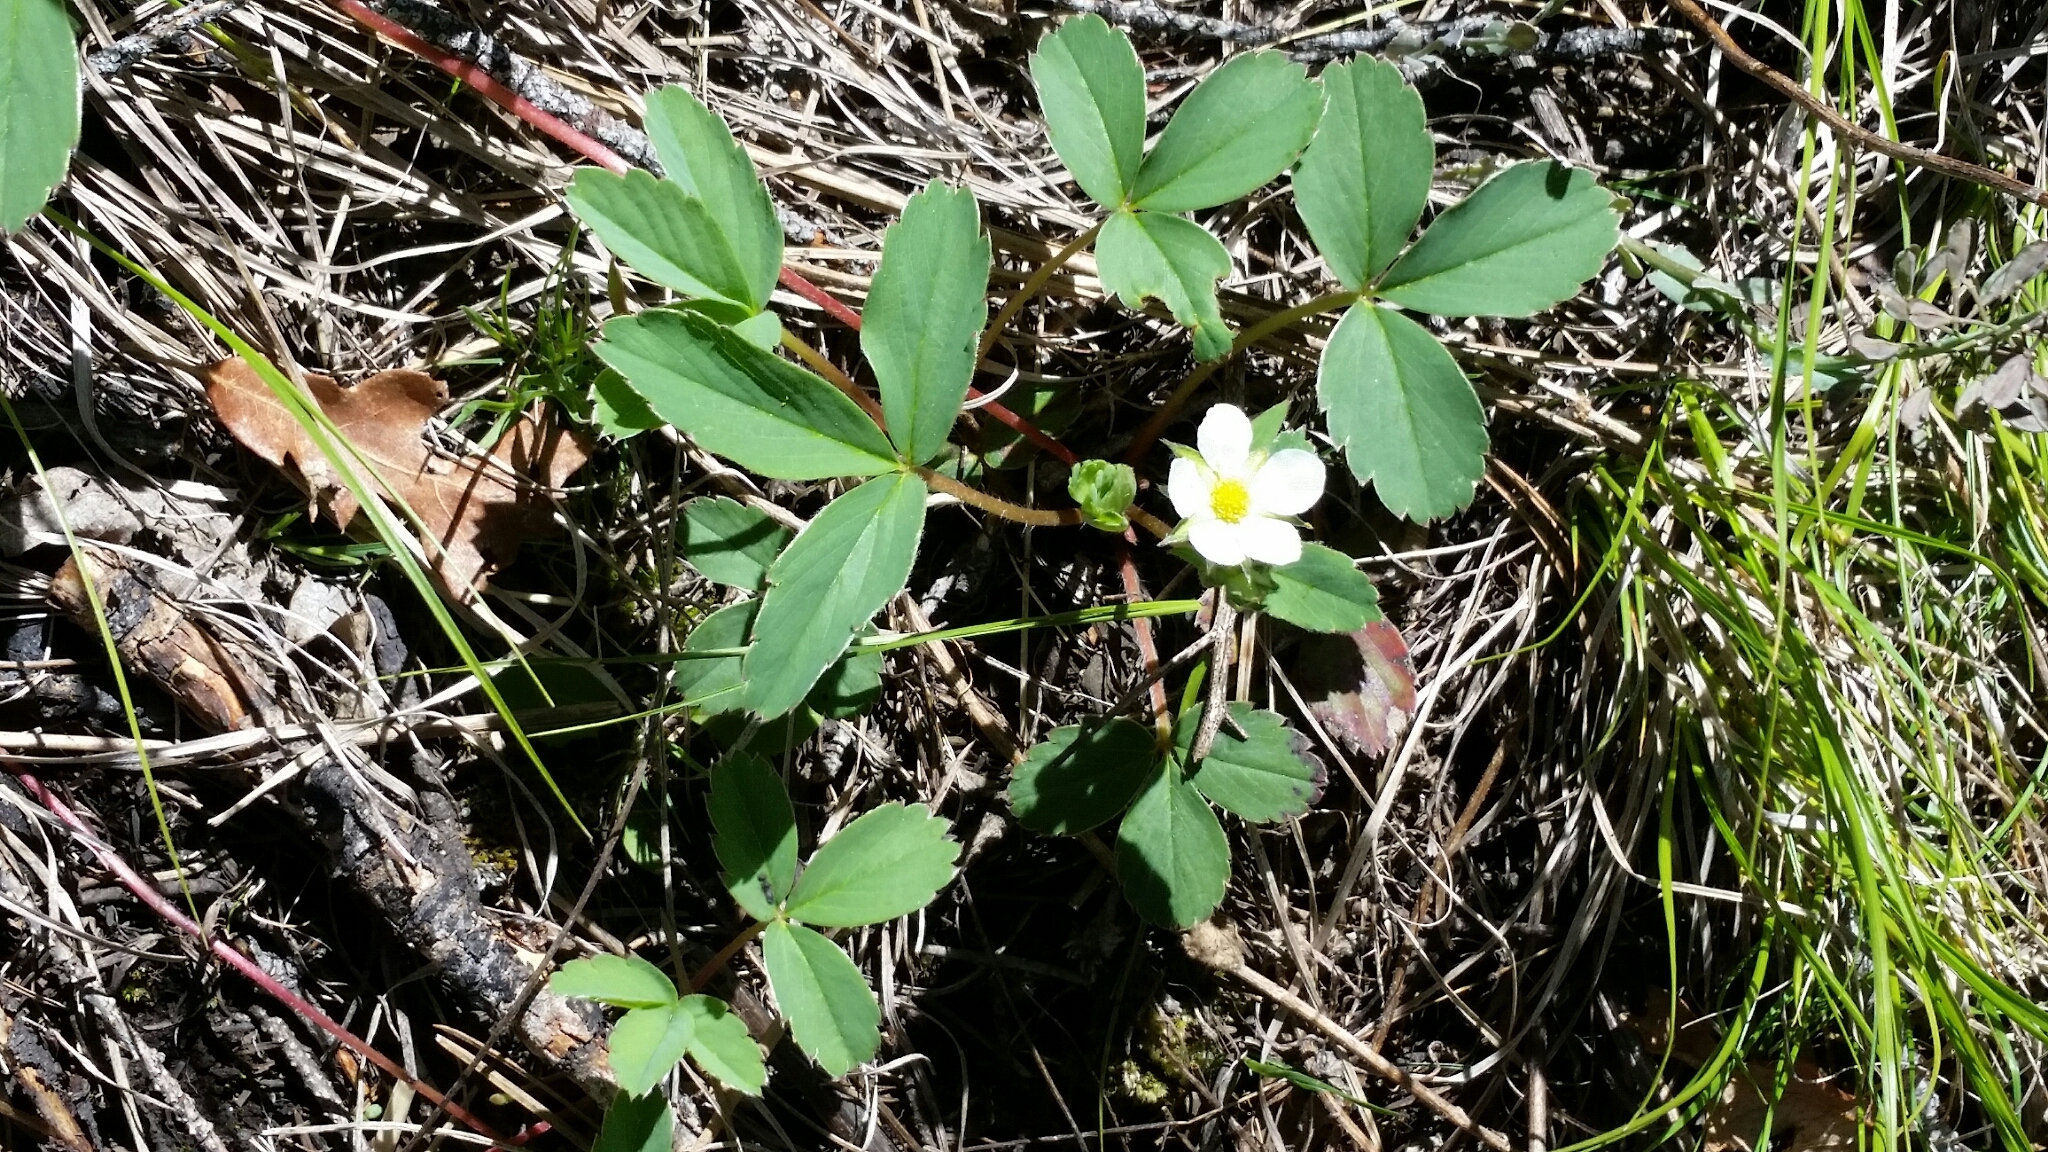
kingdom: Plantae
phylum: Tracheophyta
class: Magnoliopsida
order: Rosales
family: Rosaceae
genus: Fragaria
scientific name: Fragaria virginiana
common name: Thickleaved wild strawberry
